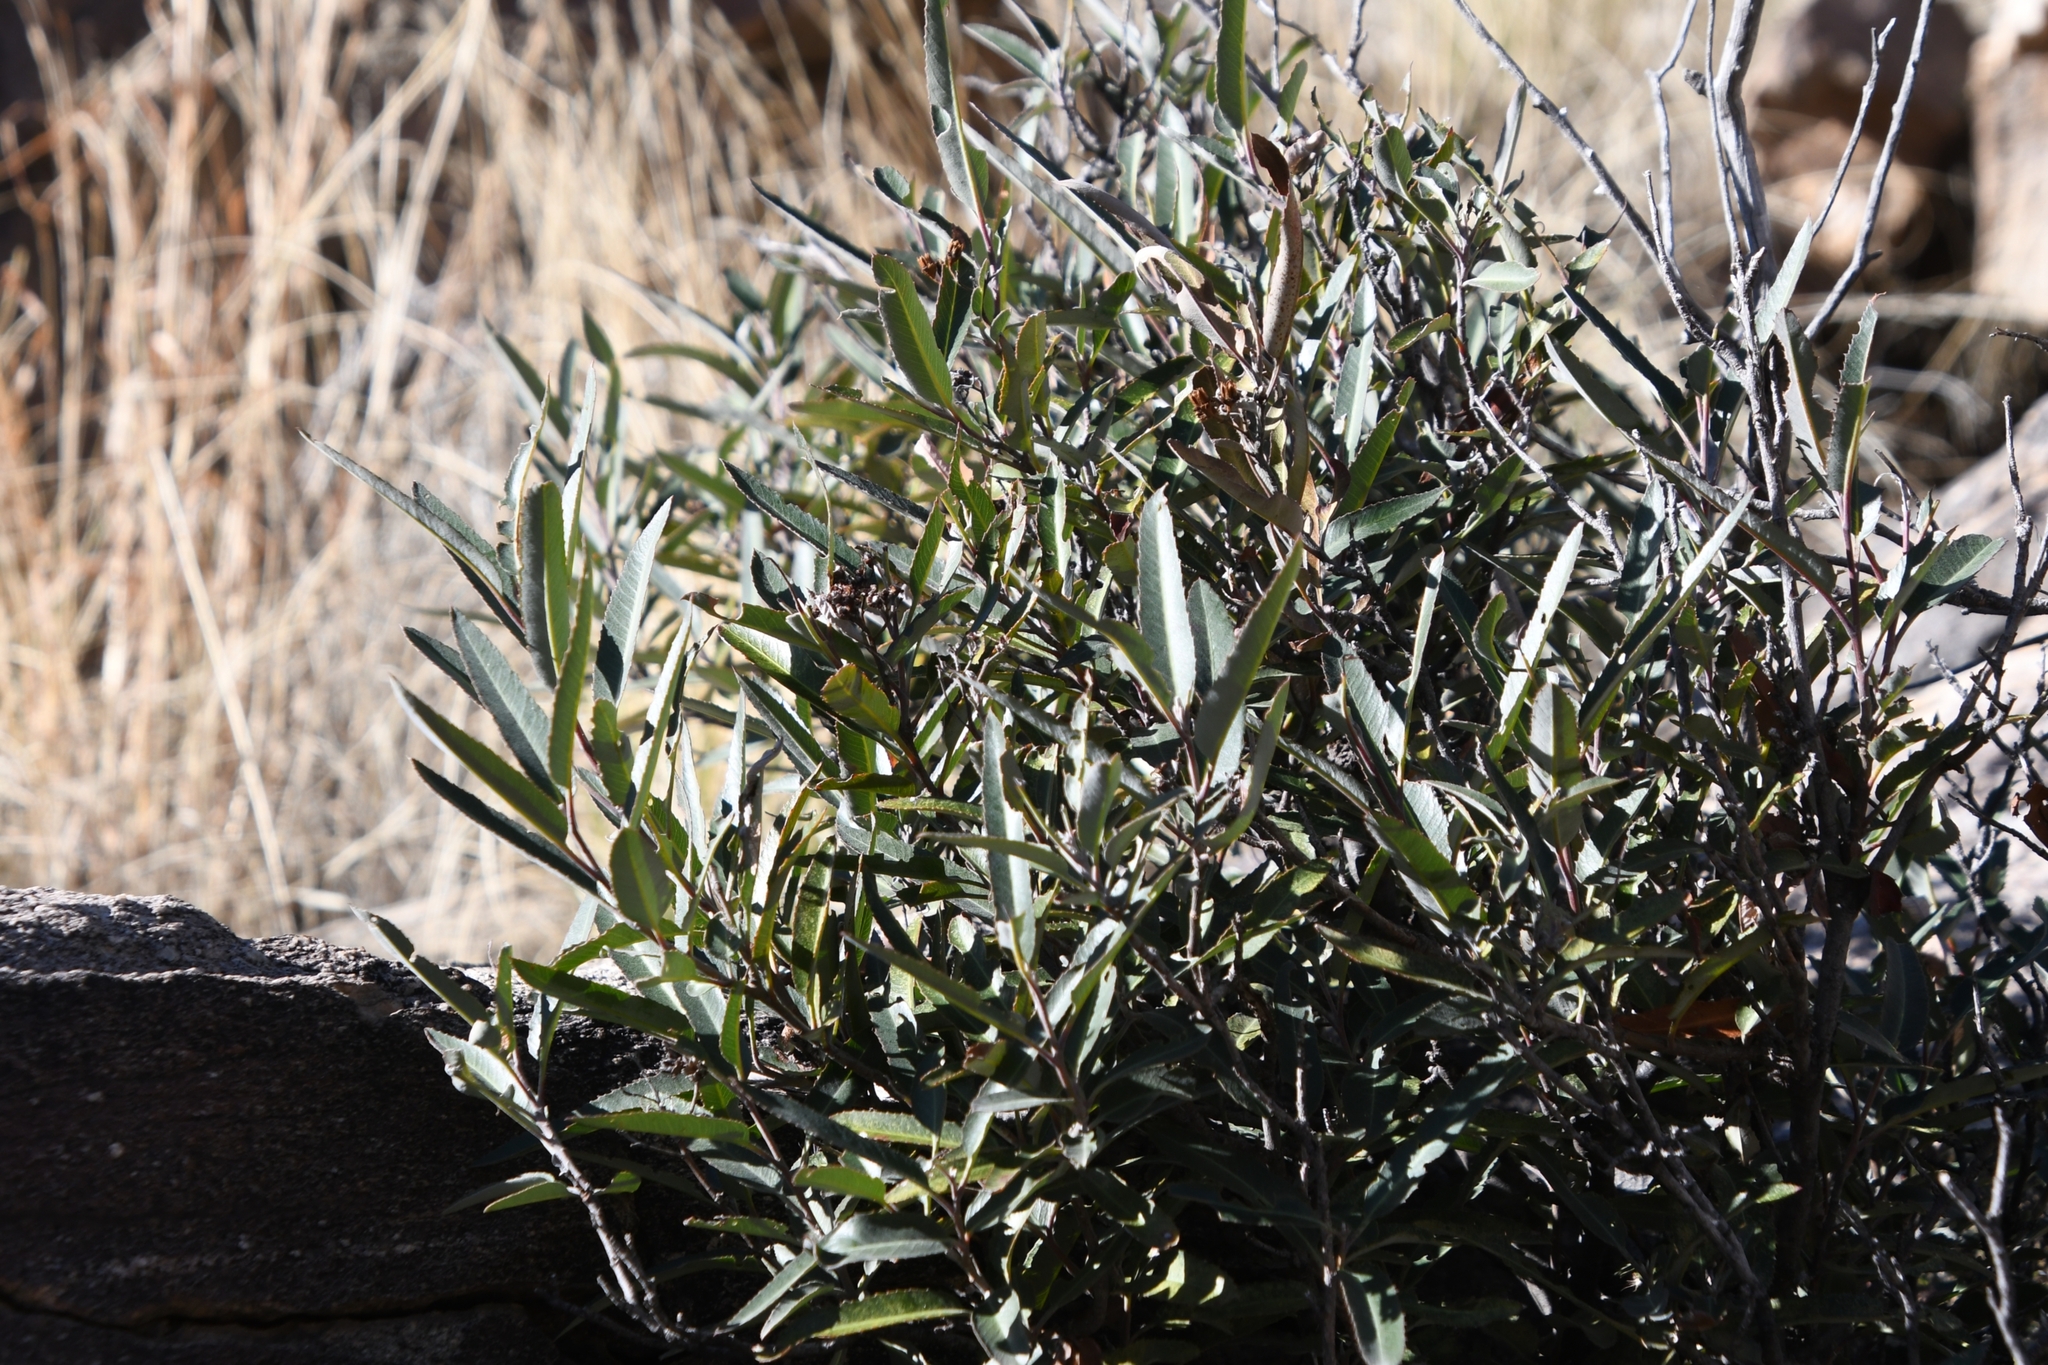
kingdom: Plantae
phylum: Tracheophyta
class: Magnoliopsida
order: Rosales
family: Rosaceae
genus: Vauquelinia
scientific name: Vauquelinia californica
